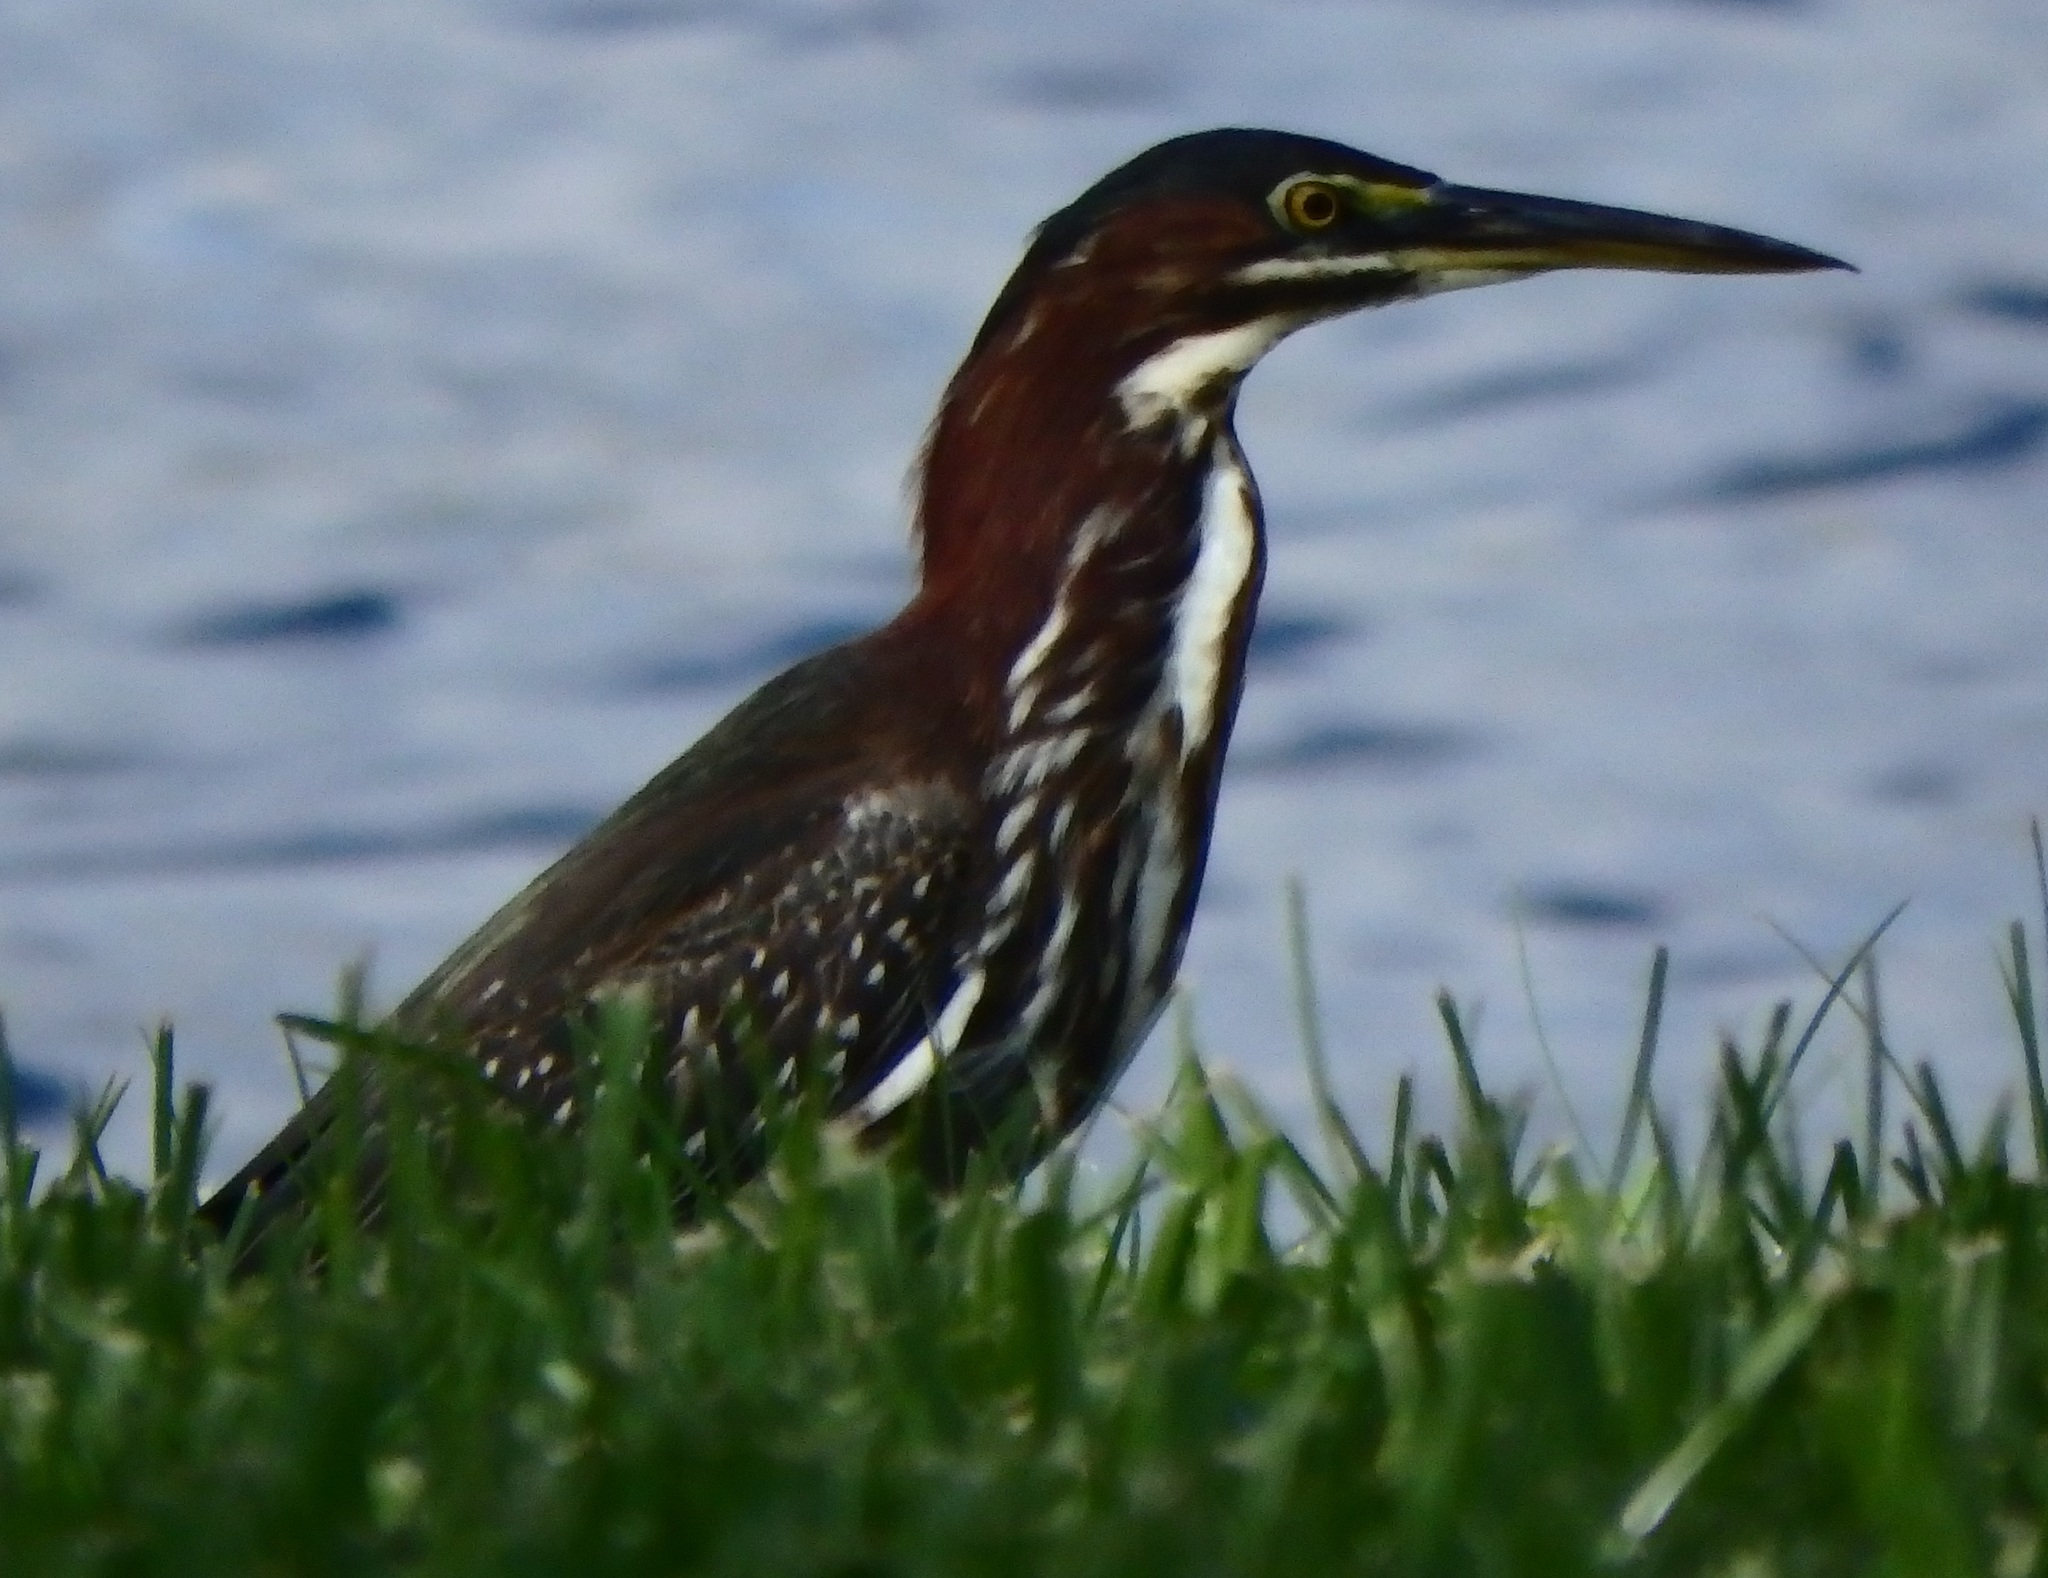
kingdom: Animalia
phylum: Chordata
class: Aves
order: Pelecaniformes
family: Ardeidae
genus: Butorides
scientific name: Butorides virescens
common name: Green heron
